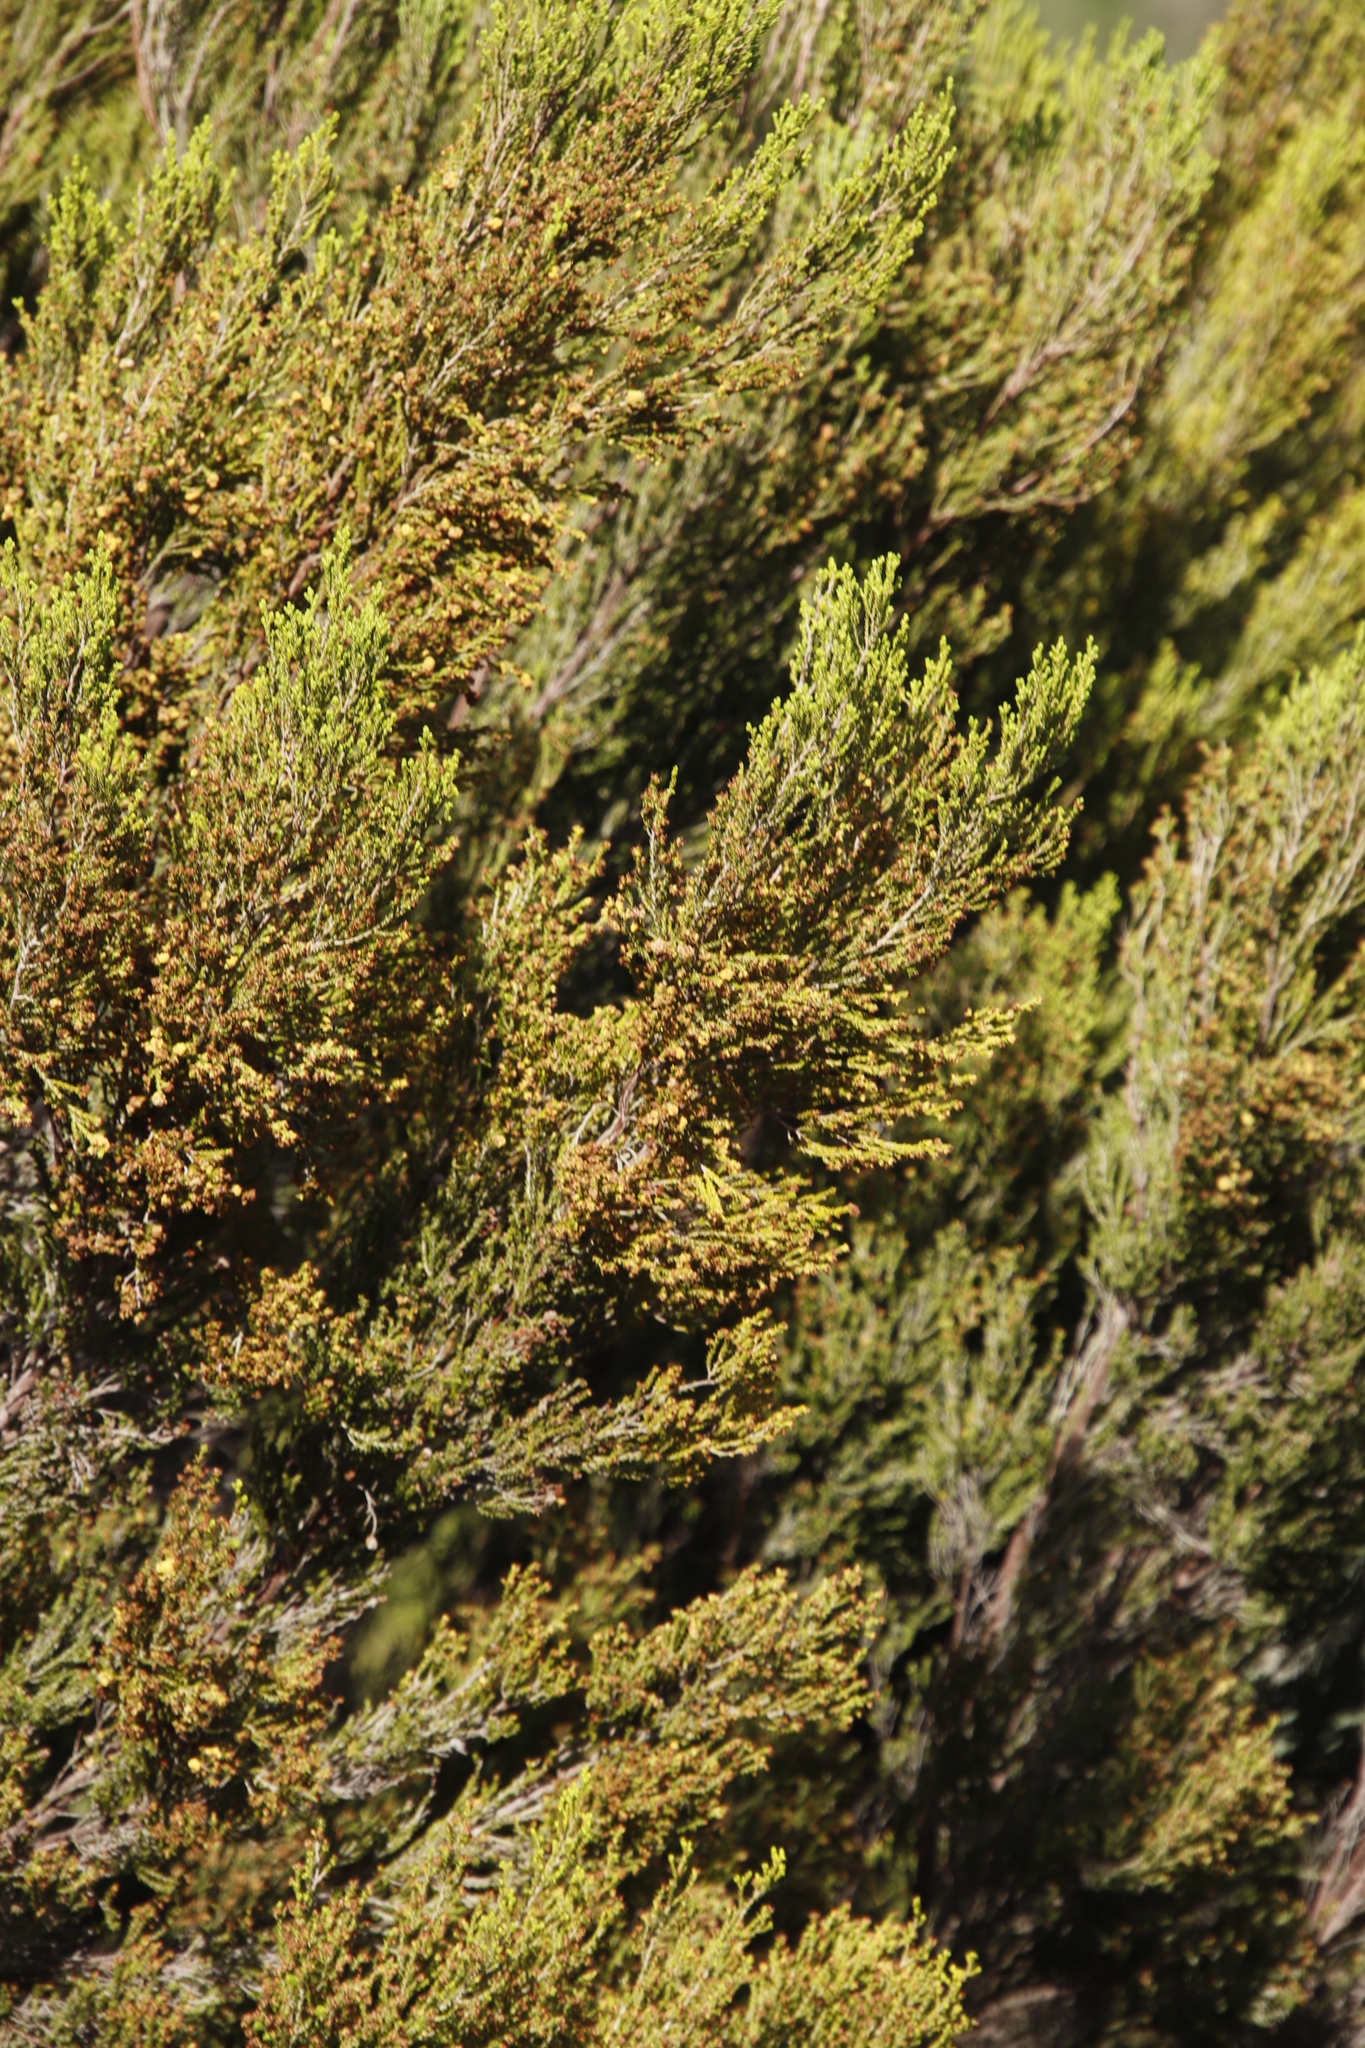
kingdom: Plantae
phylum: Tracheophyta
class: Magnoliopsida
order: Ericales
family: Ericaceae
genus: Erica
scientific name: Erica tristis
